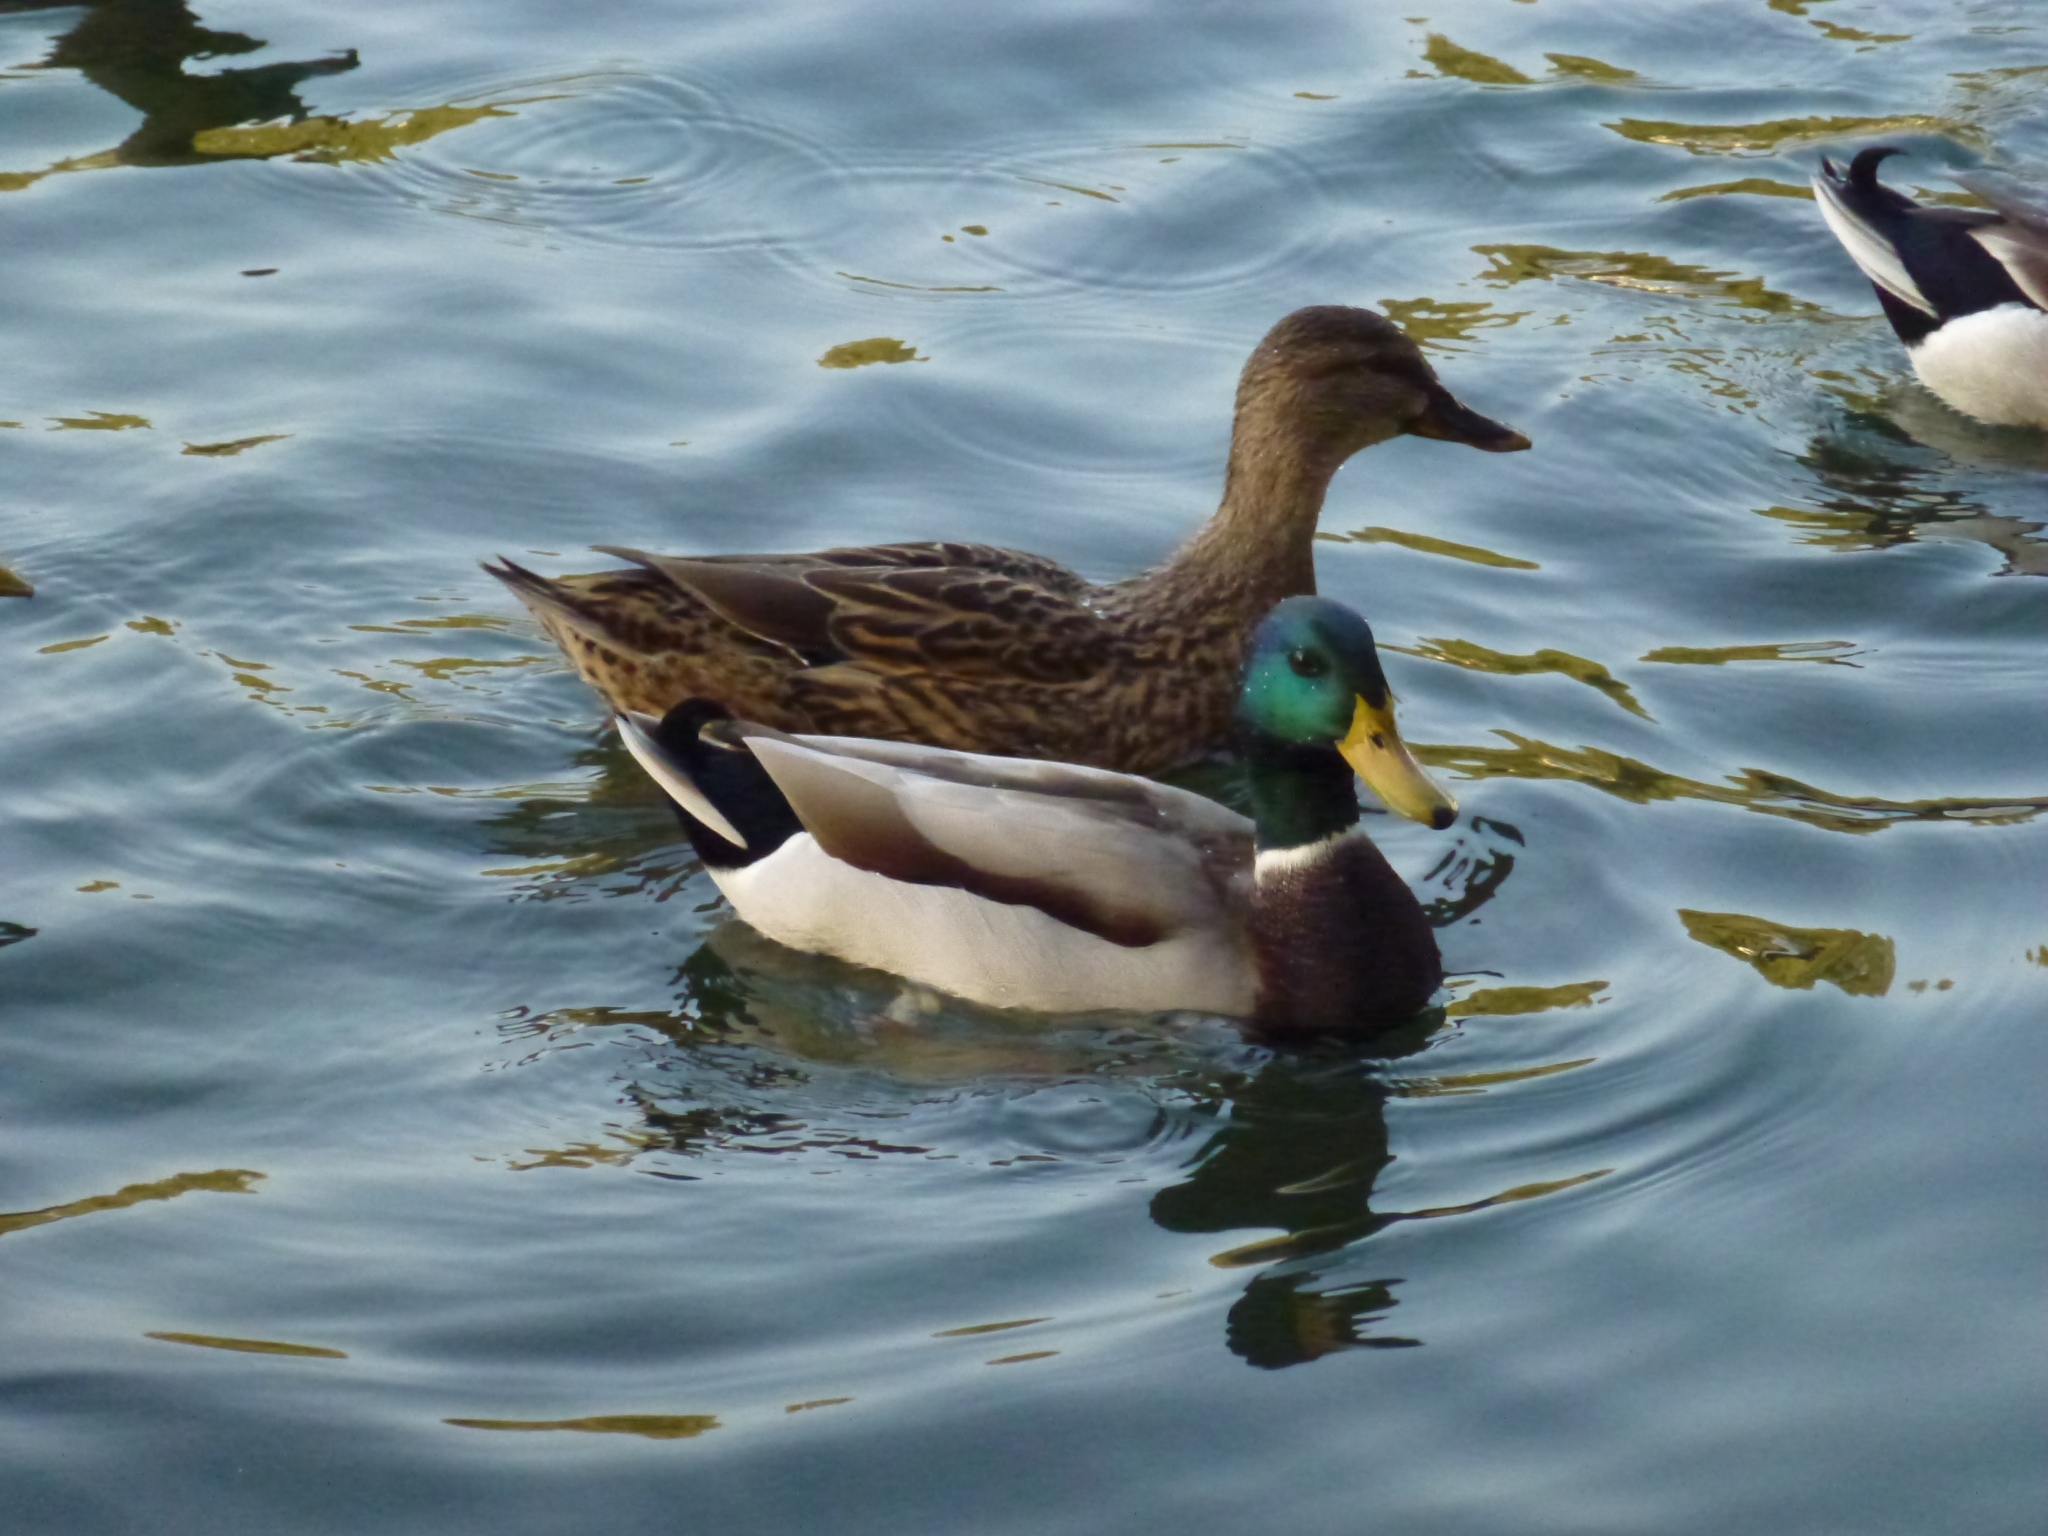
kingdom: Animalia
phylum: Chordata
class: Aves
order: Anseriformes
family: Anatidae
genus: Anas
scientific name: Anas platyrhynchos
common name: Mallard
